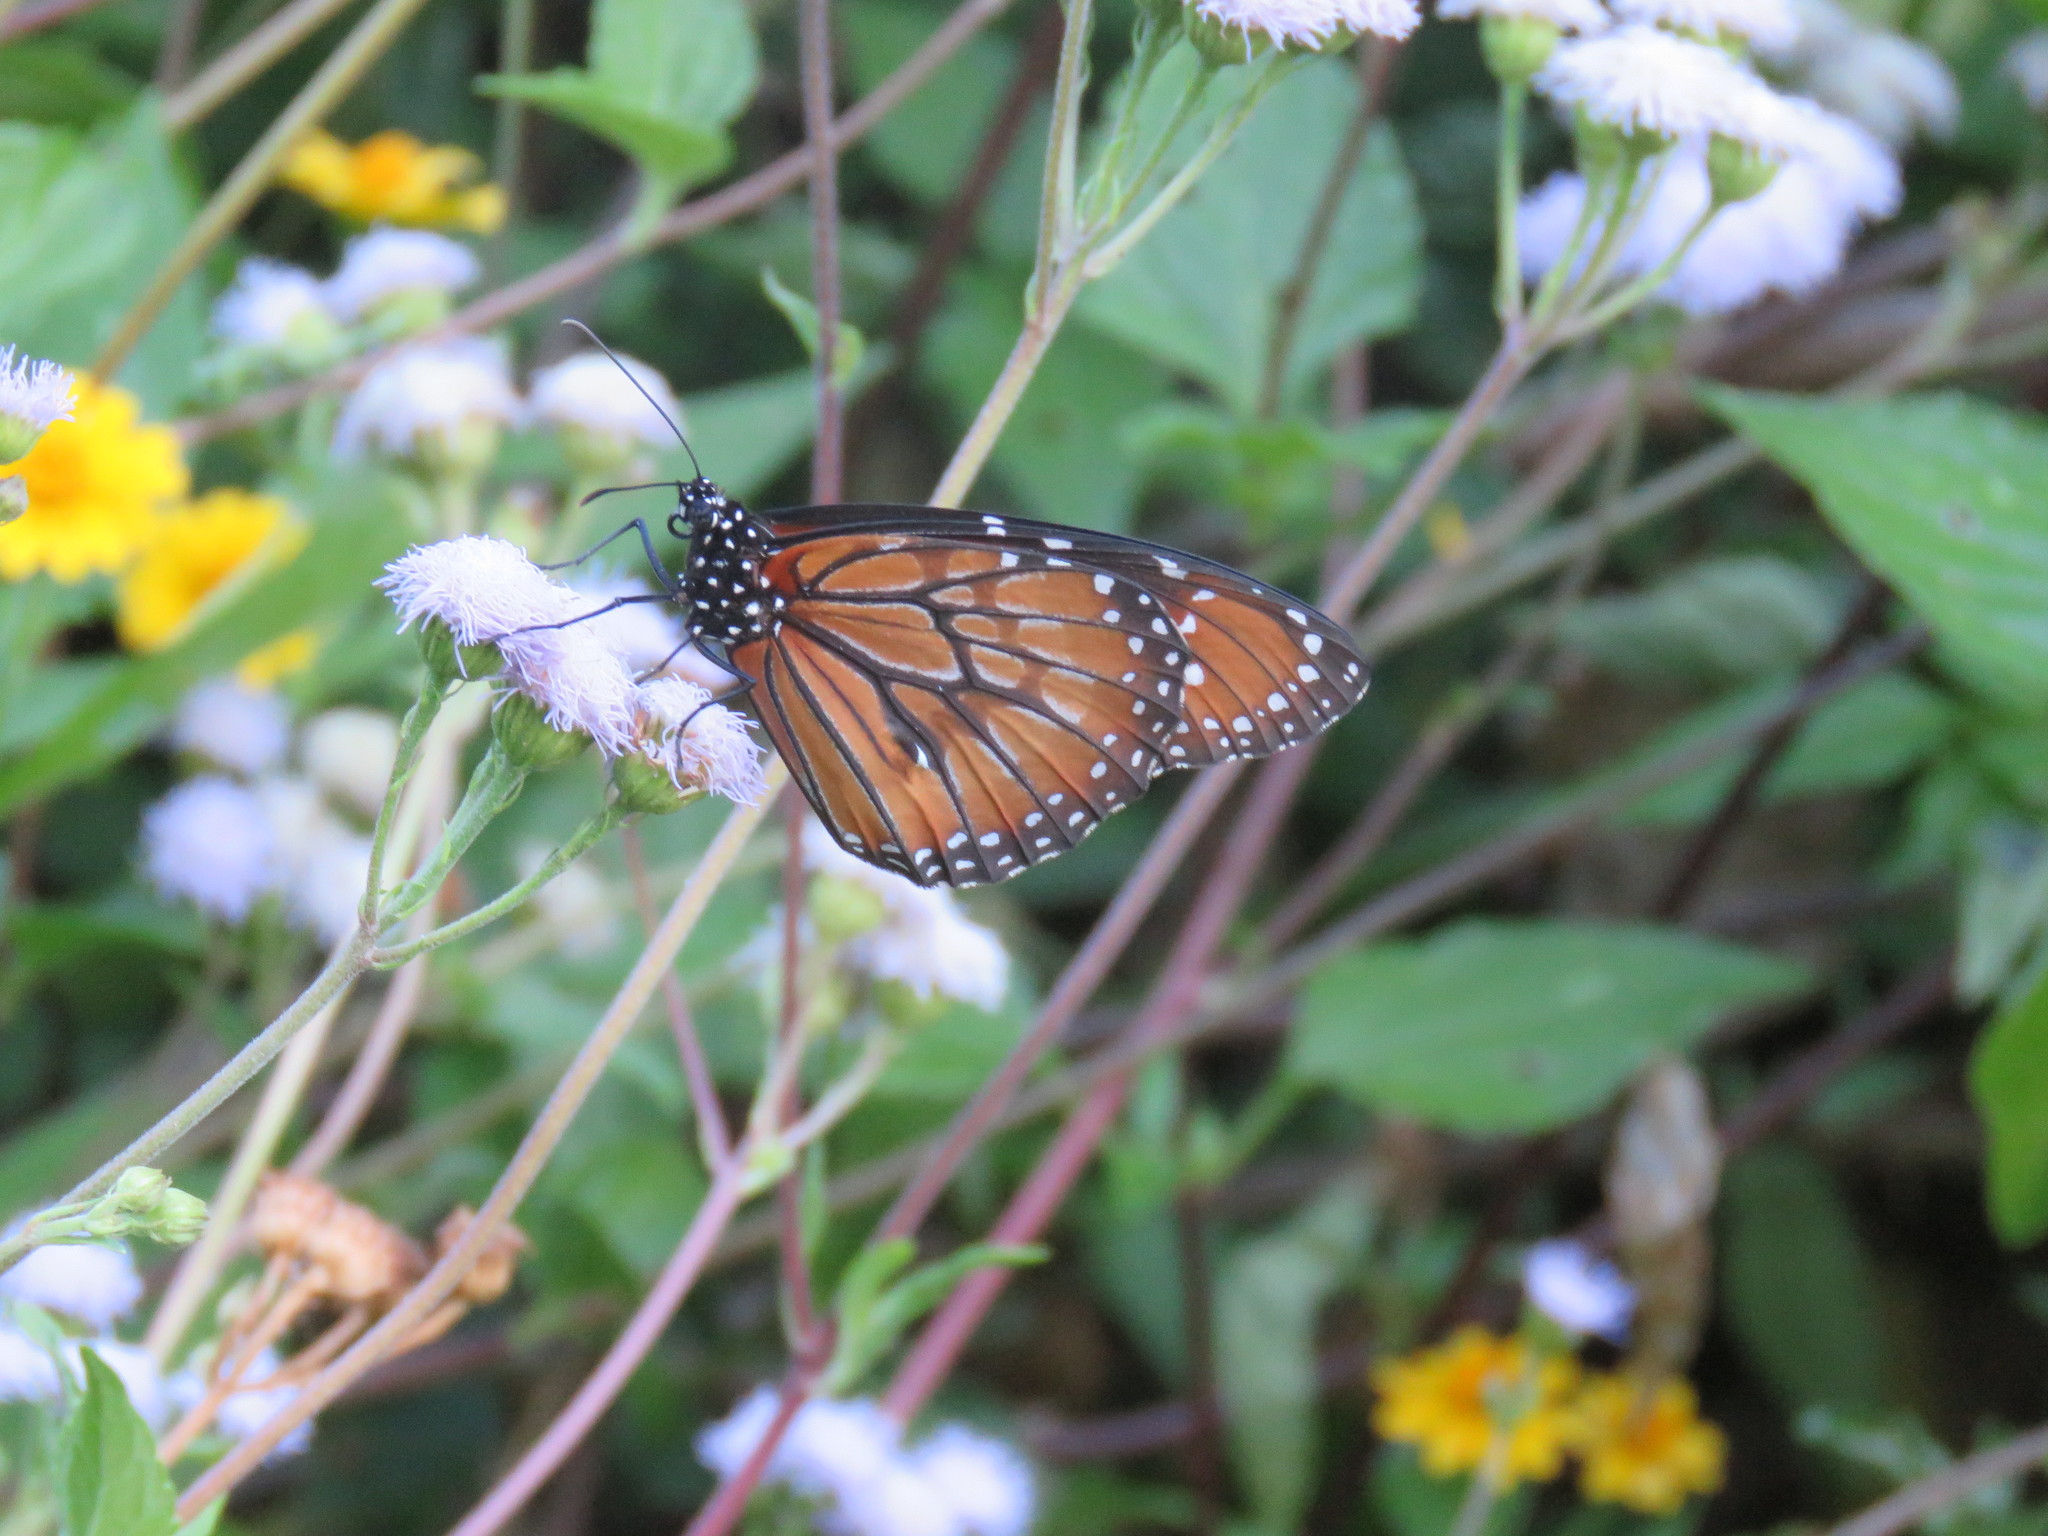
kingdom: Animalia
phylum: Arthropoda
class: Insecta
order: Lepidoptera
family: Nymphalidae
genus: Danaus
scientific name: Danaus eresimus
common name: Soldier
